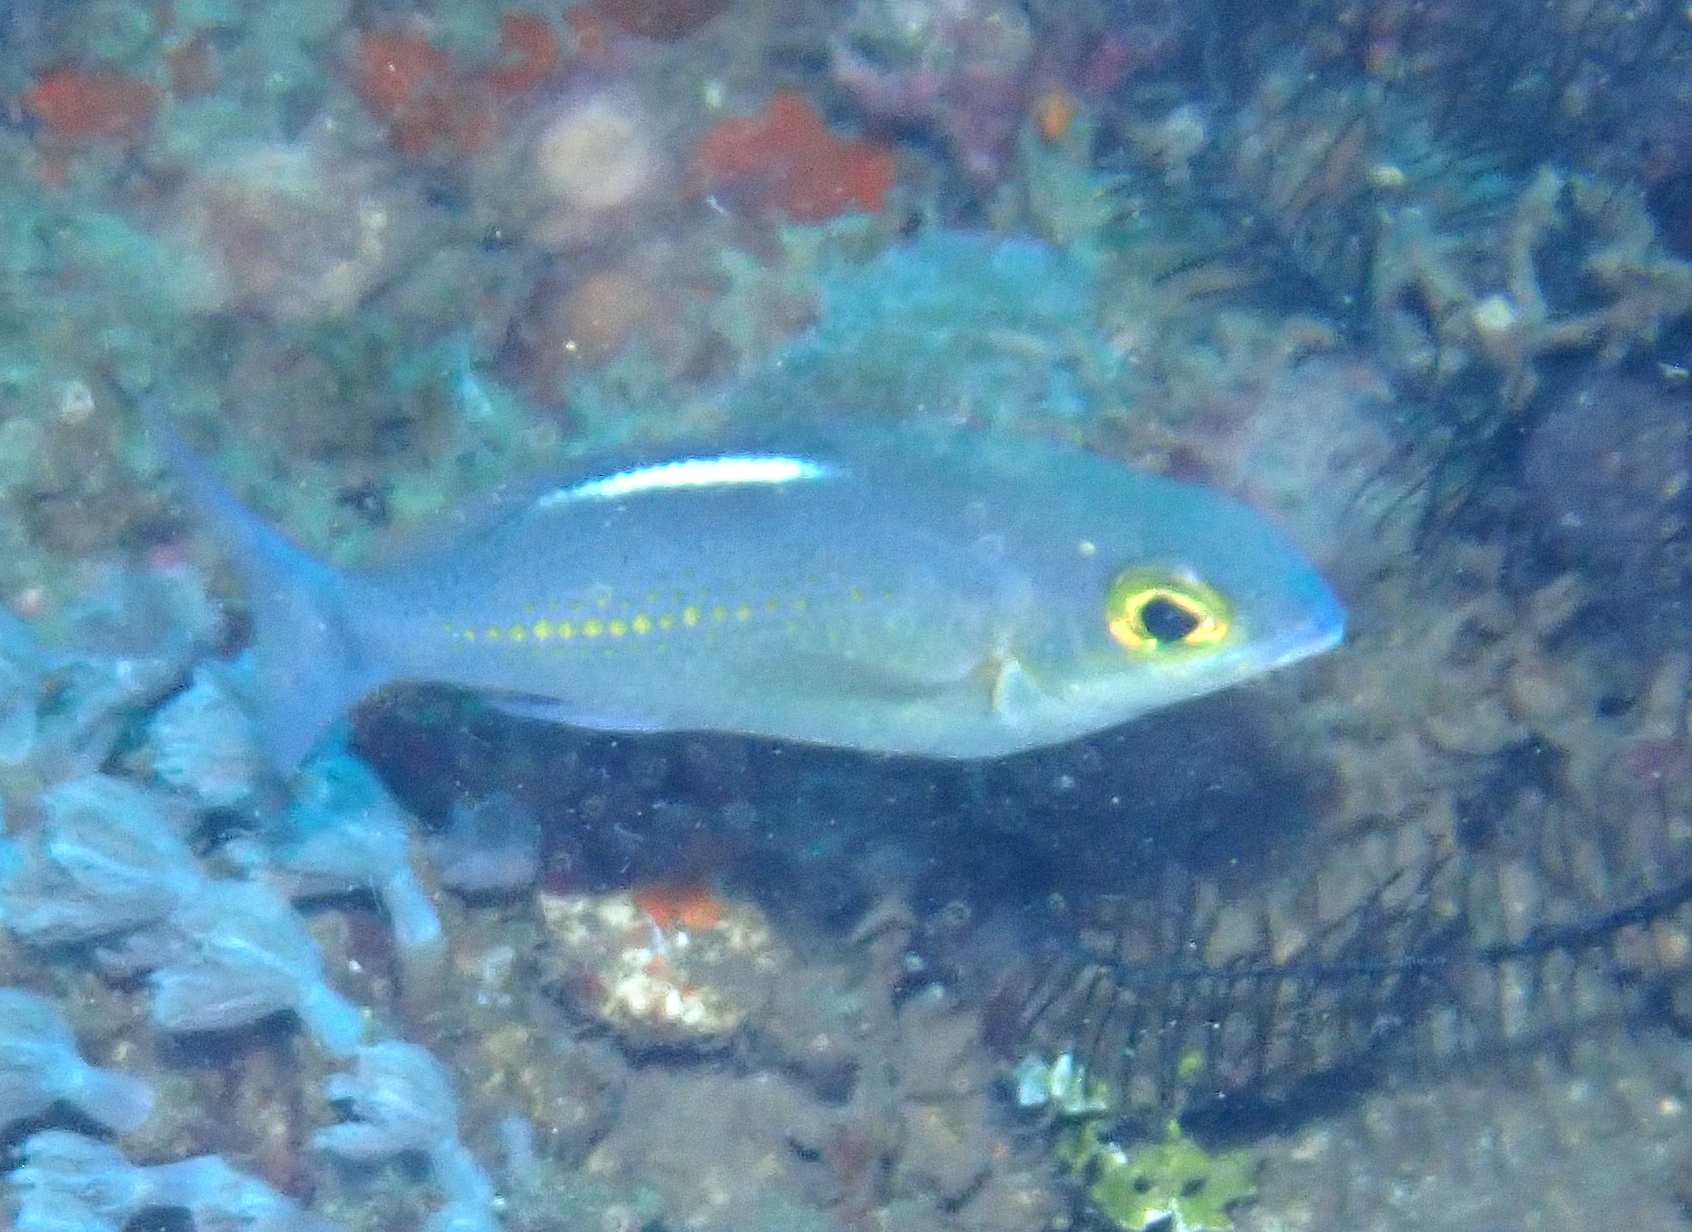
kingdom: Animalia
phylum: Chordata
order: Perciformes
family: Nemipteridae
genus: Scolopsis
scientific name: Scolopsis ciliata
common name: Ciliate spinecheek
